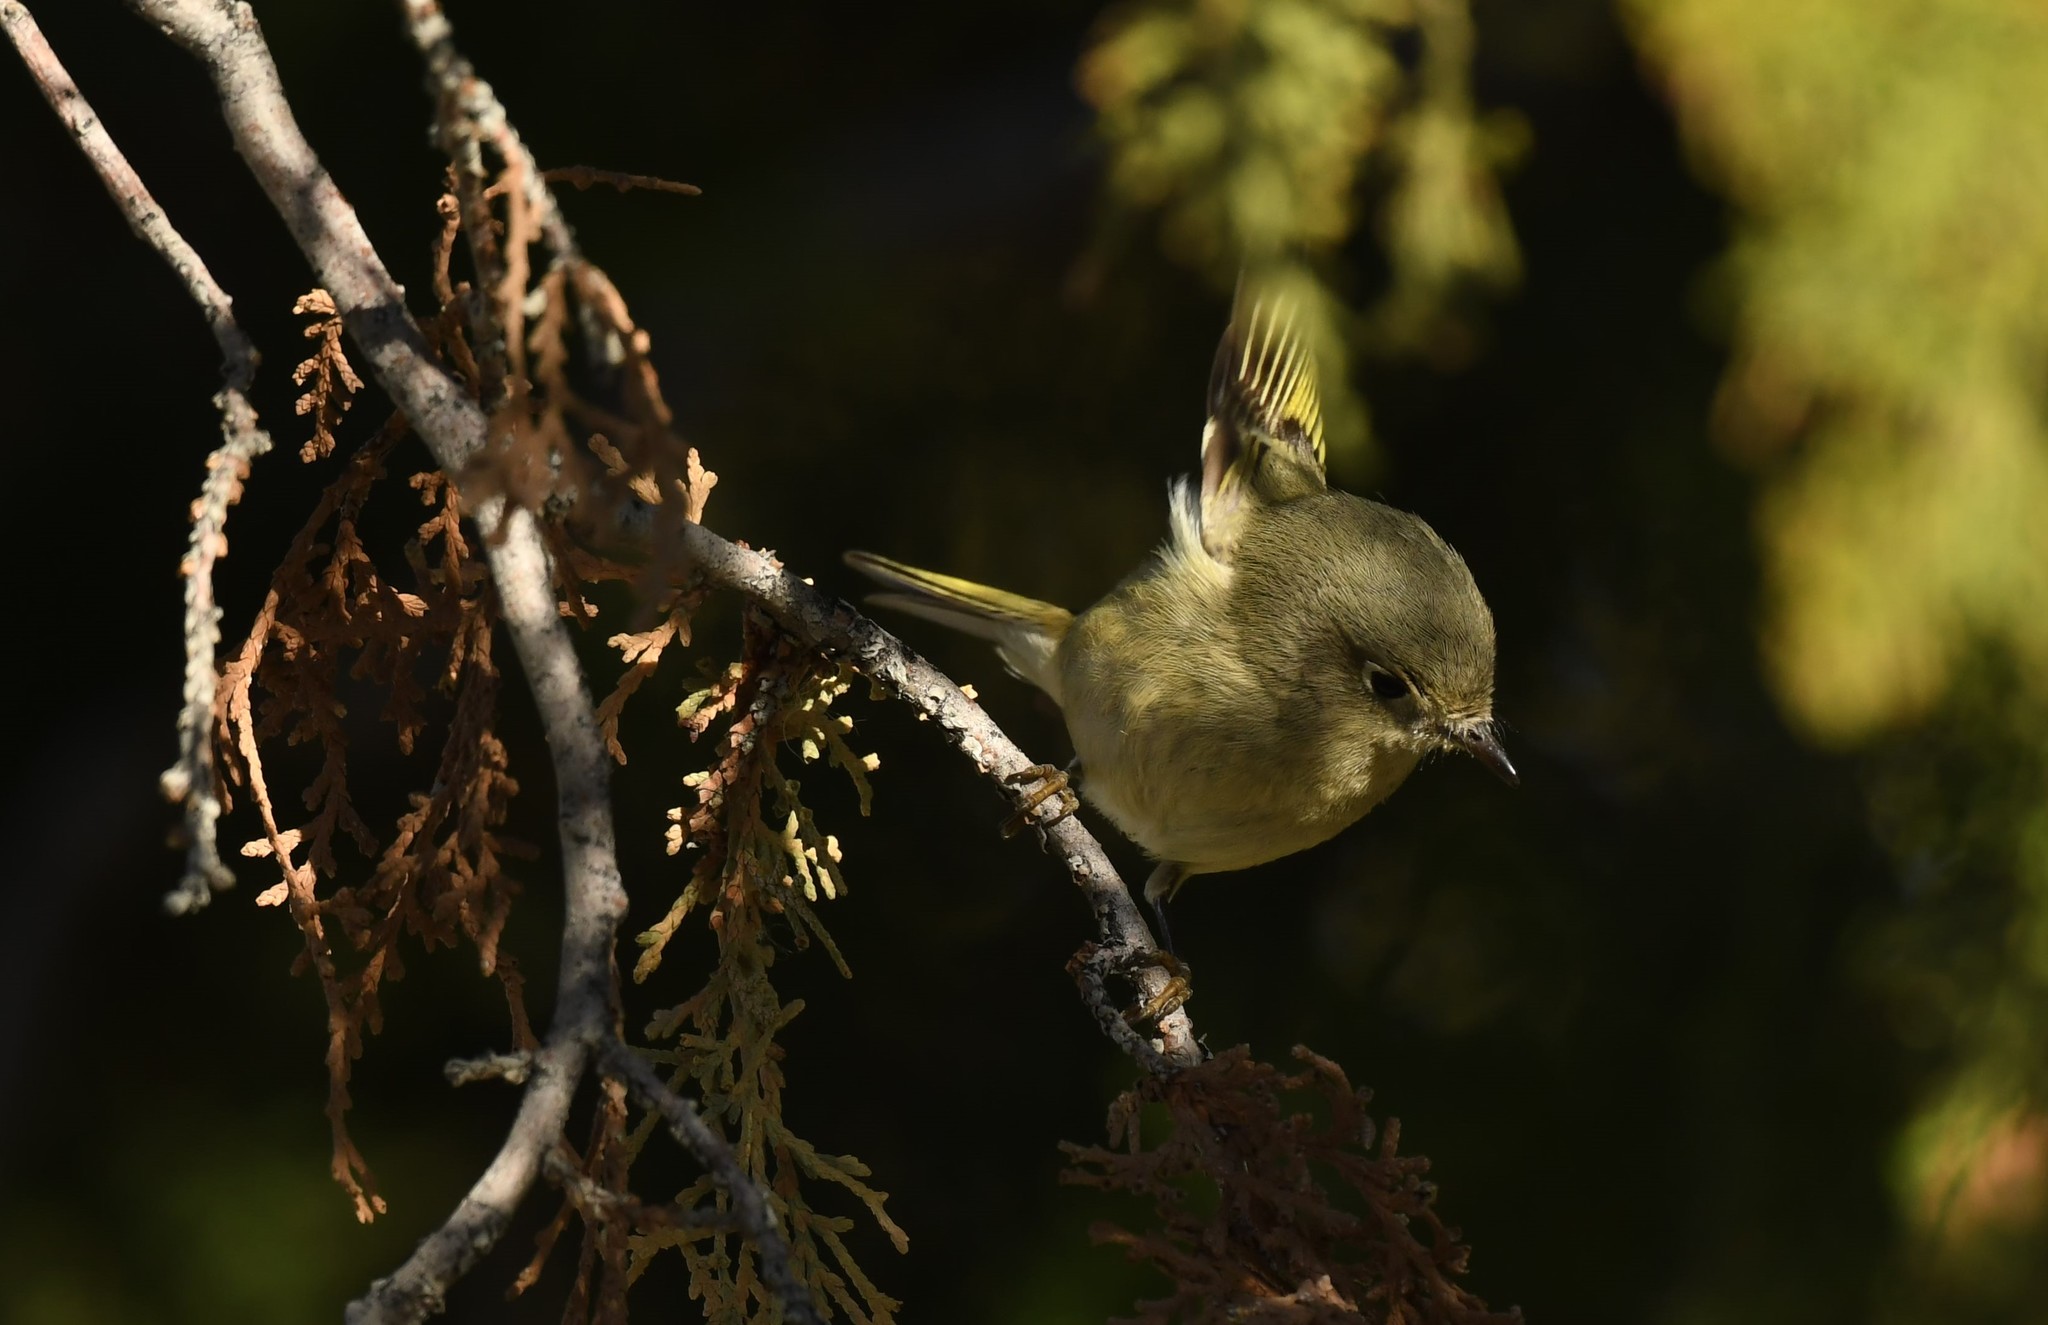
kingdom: Animalia
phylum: Chordata
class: Aves
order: Passeriformes
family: Regulidae
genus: Regulus
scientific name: Regulus calendula
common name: Ruby-crowned kinglet
